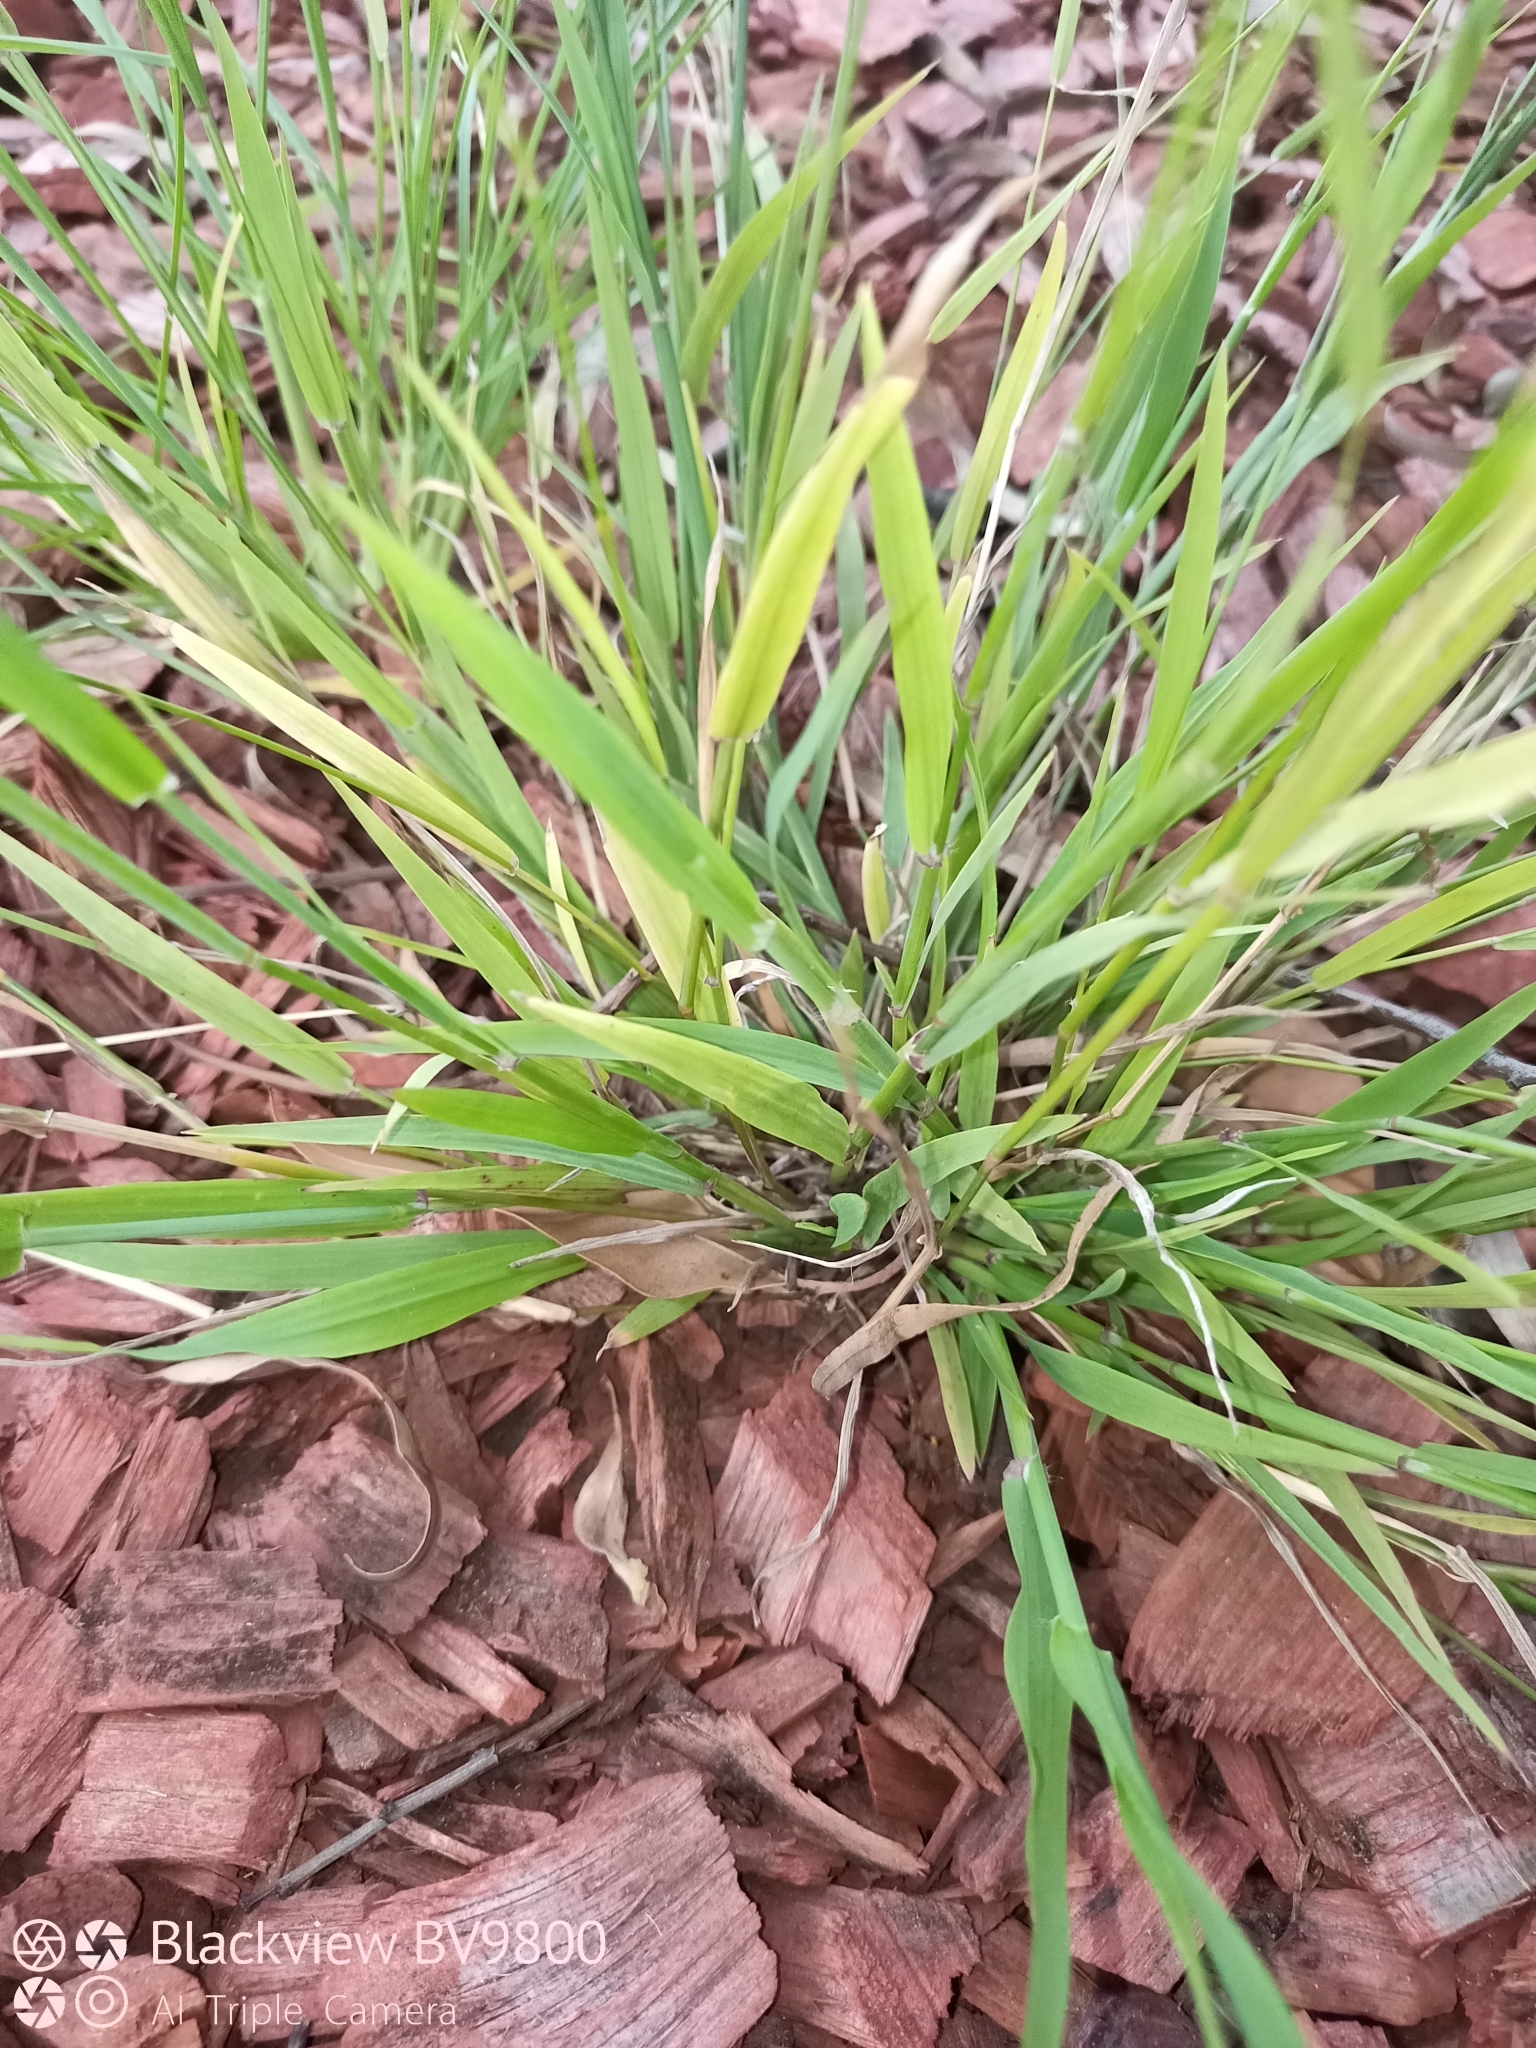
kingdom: Plantae
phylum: Tracheophyta
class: Liliopsida
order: Poales
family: Poaceae
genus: Ehrharta
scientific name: Ehrharta erecta
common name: Panic veldtgrass
